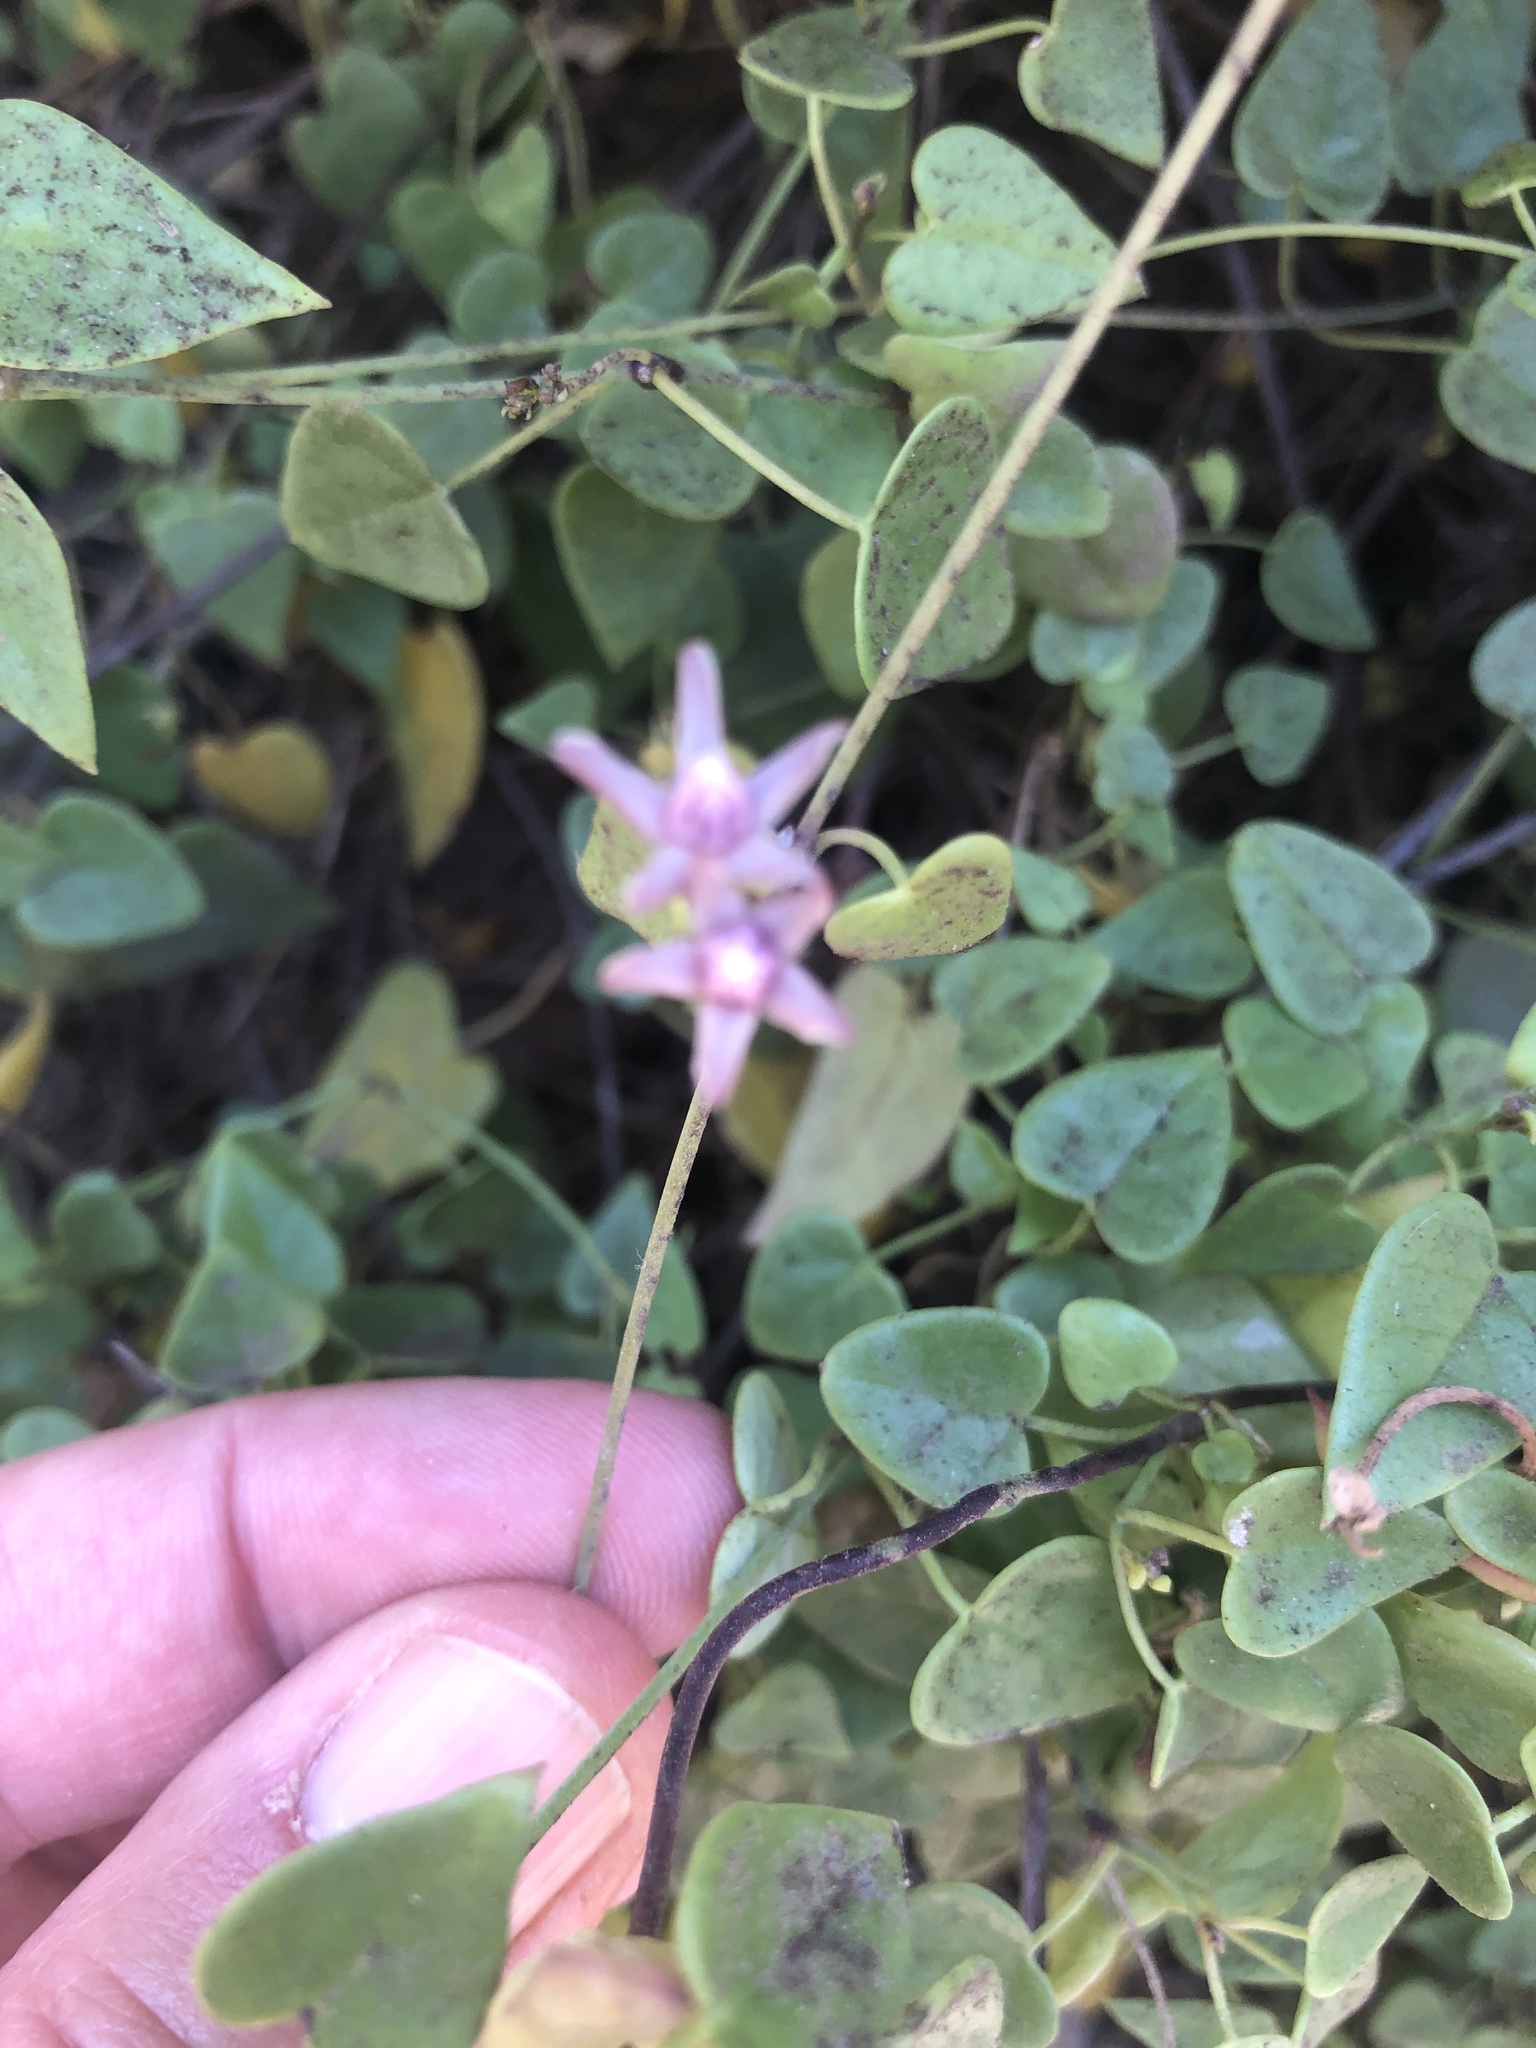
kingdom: Plantae
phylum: Tracheophyta
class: Magnoliopsida
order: Gentianales
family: Apocynaceae
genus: Diplolepis
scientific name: Diplolepis boerhaviifolia
